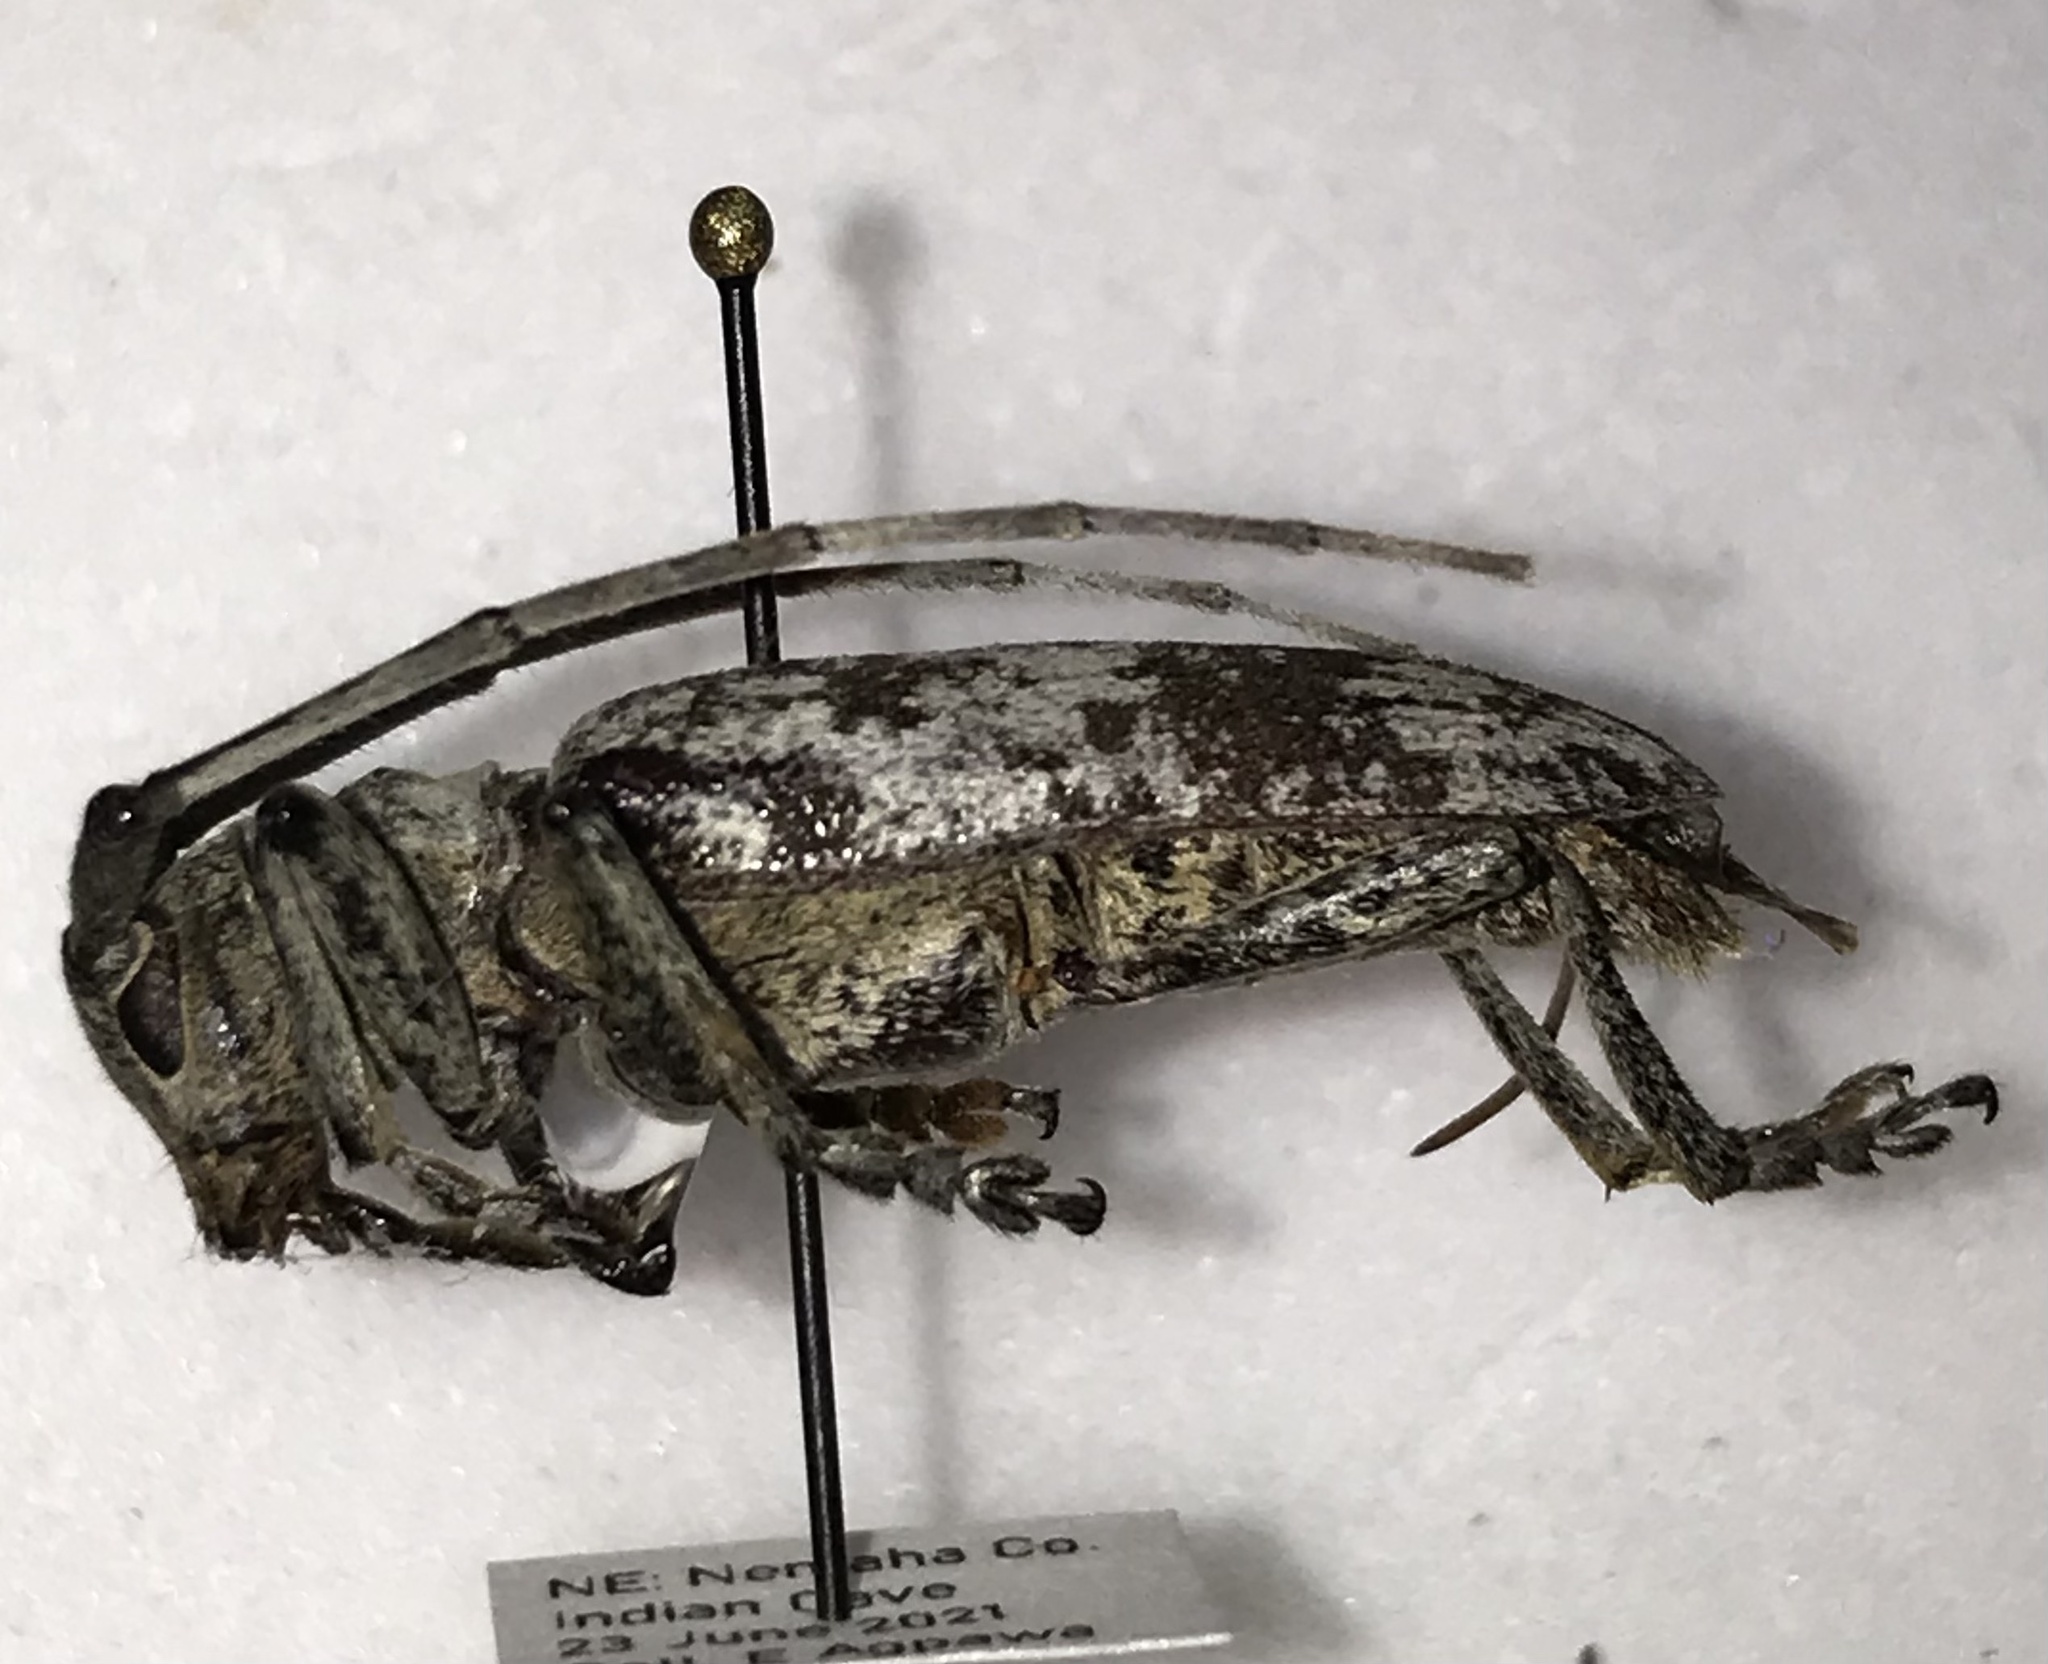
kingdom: Animalia
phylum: Arthropoda
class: Insecta
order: Coleoptera
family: Cerambycidae
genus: Goes
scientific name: Goes tigrinus
